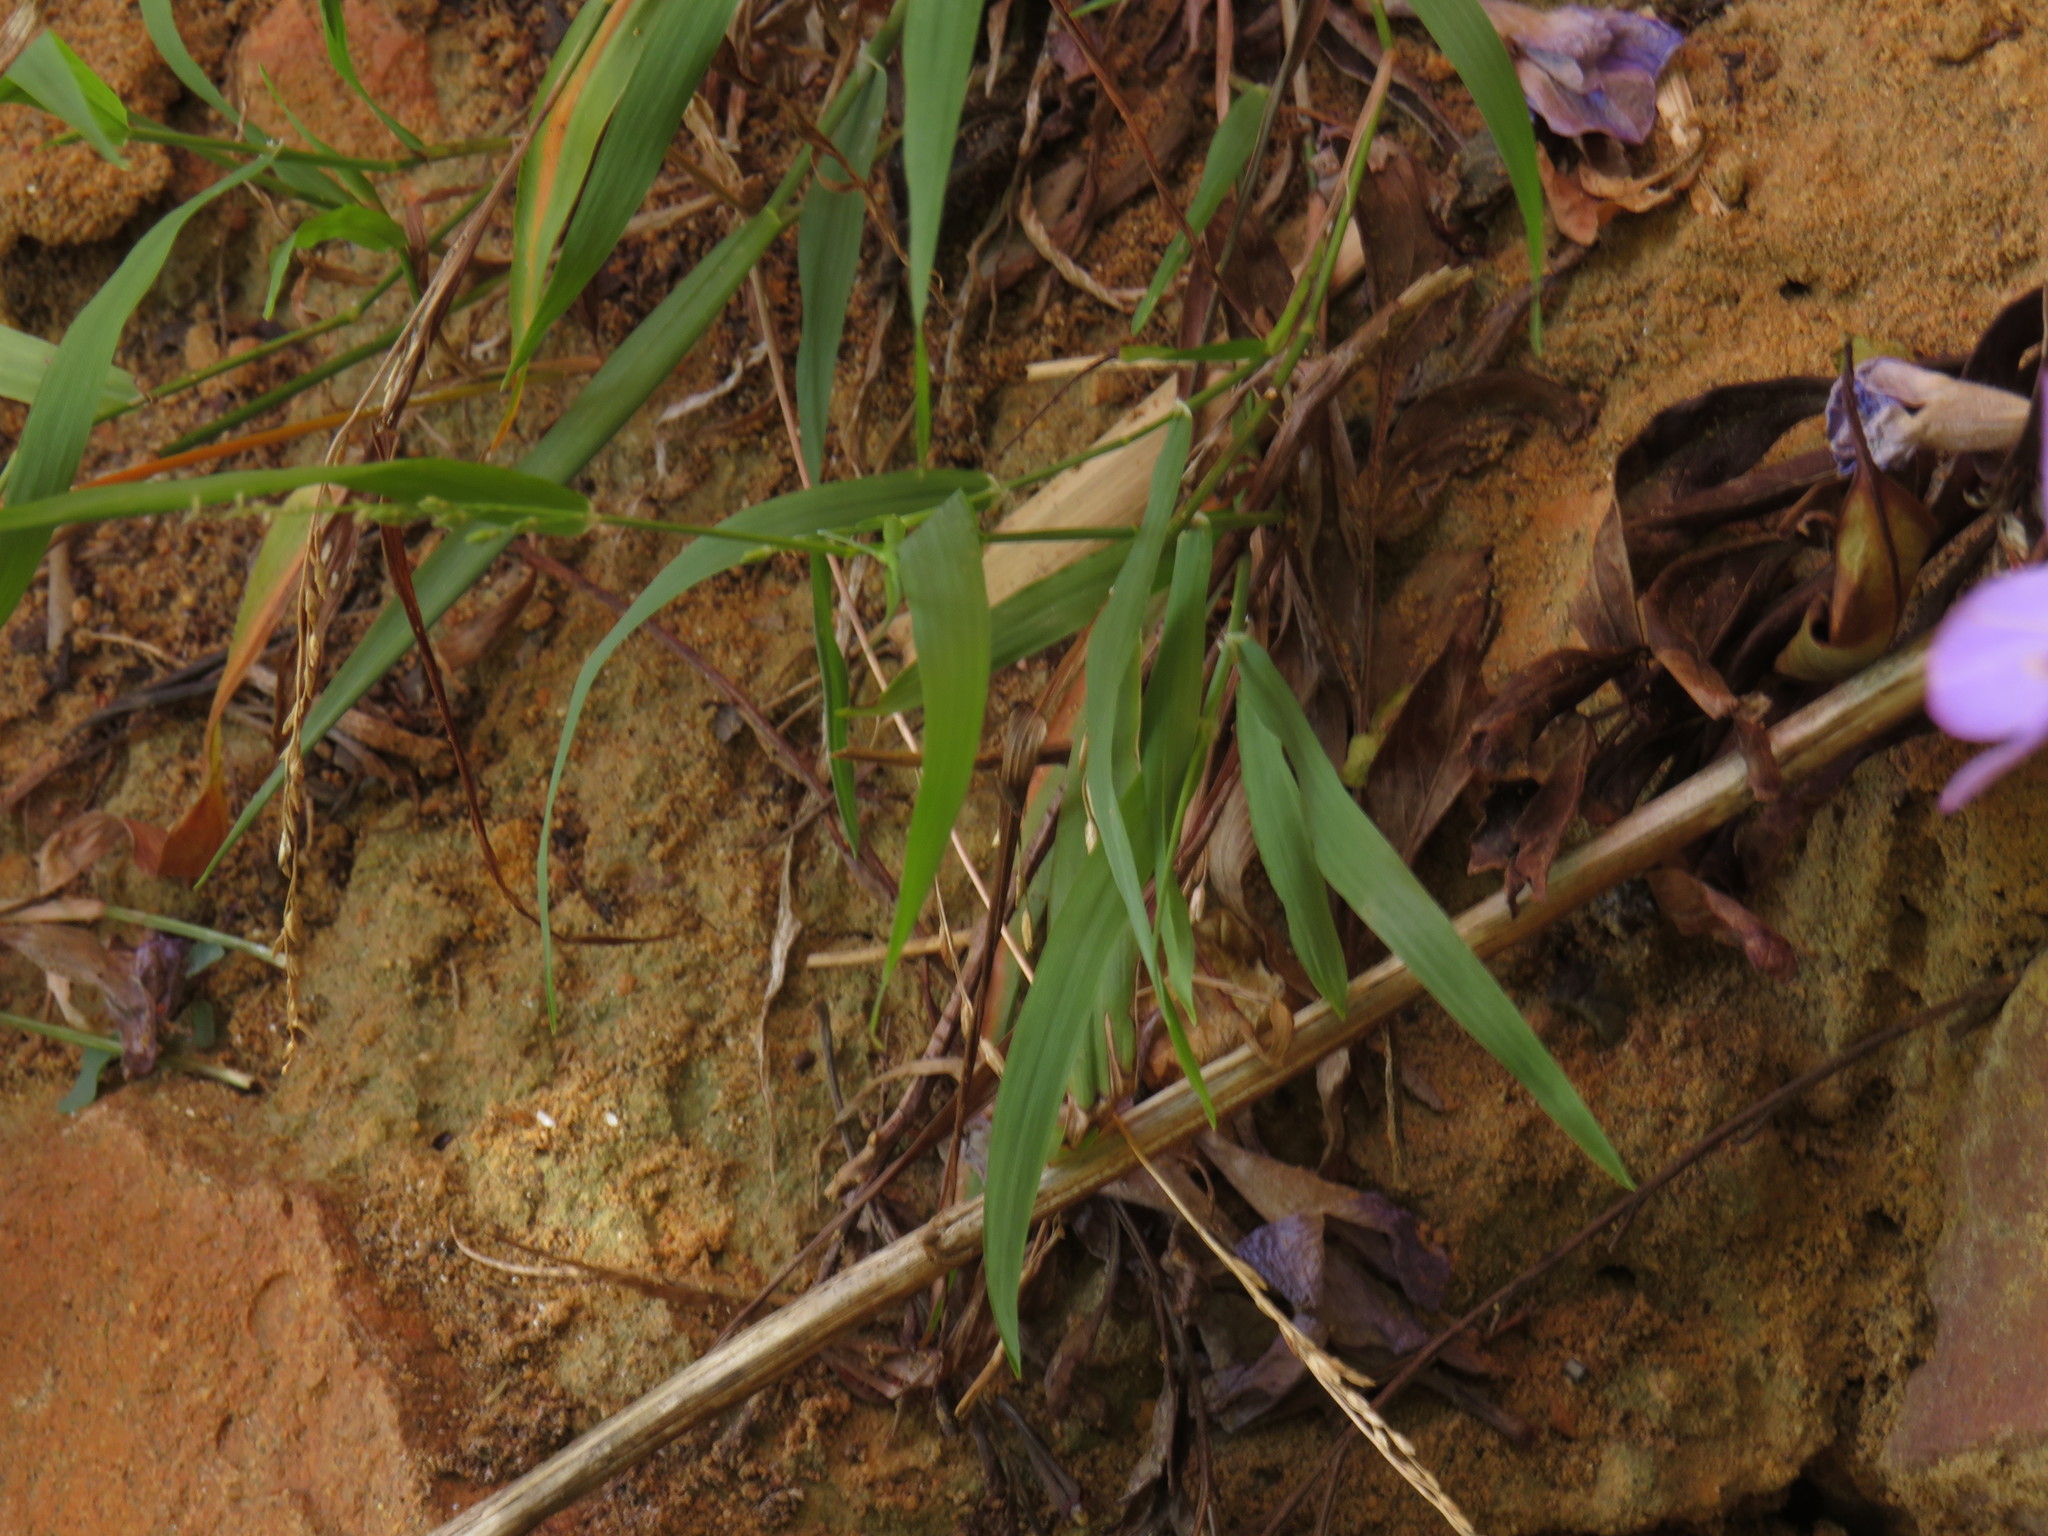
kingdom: Plantae
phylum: Tracheophyta
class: Liliopsida
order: Poales
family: Poaceae
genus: Ehrharta
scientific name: Ehrharta erecta
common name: Panic veldtgrass
